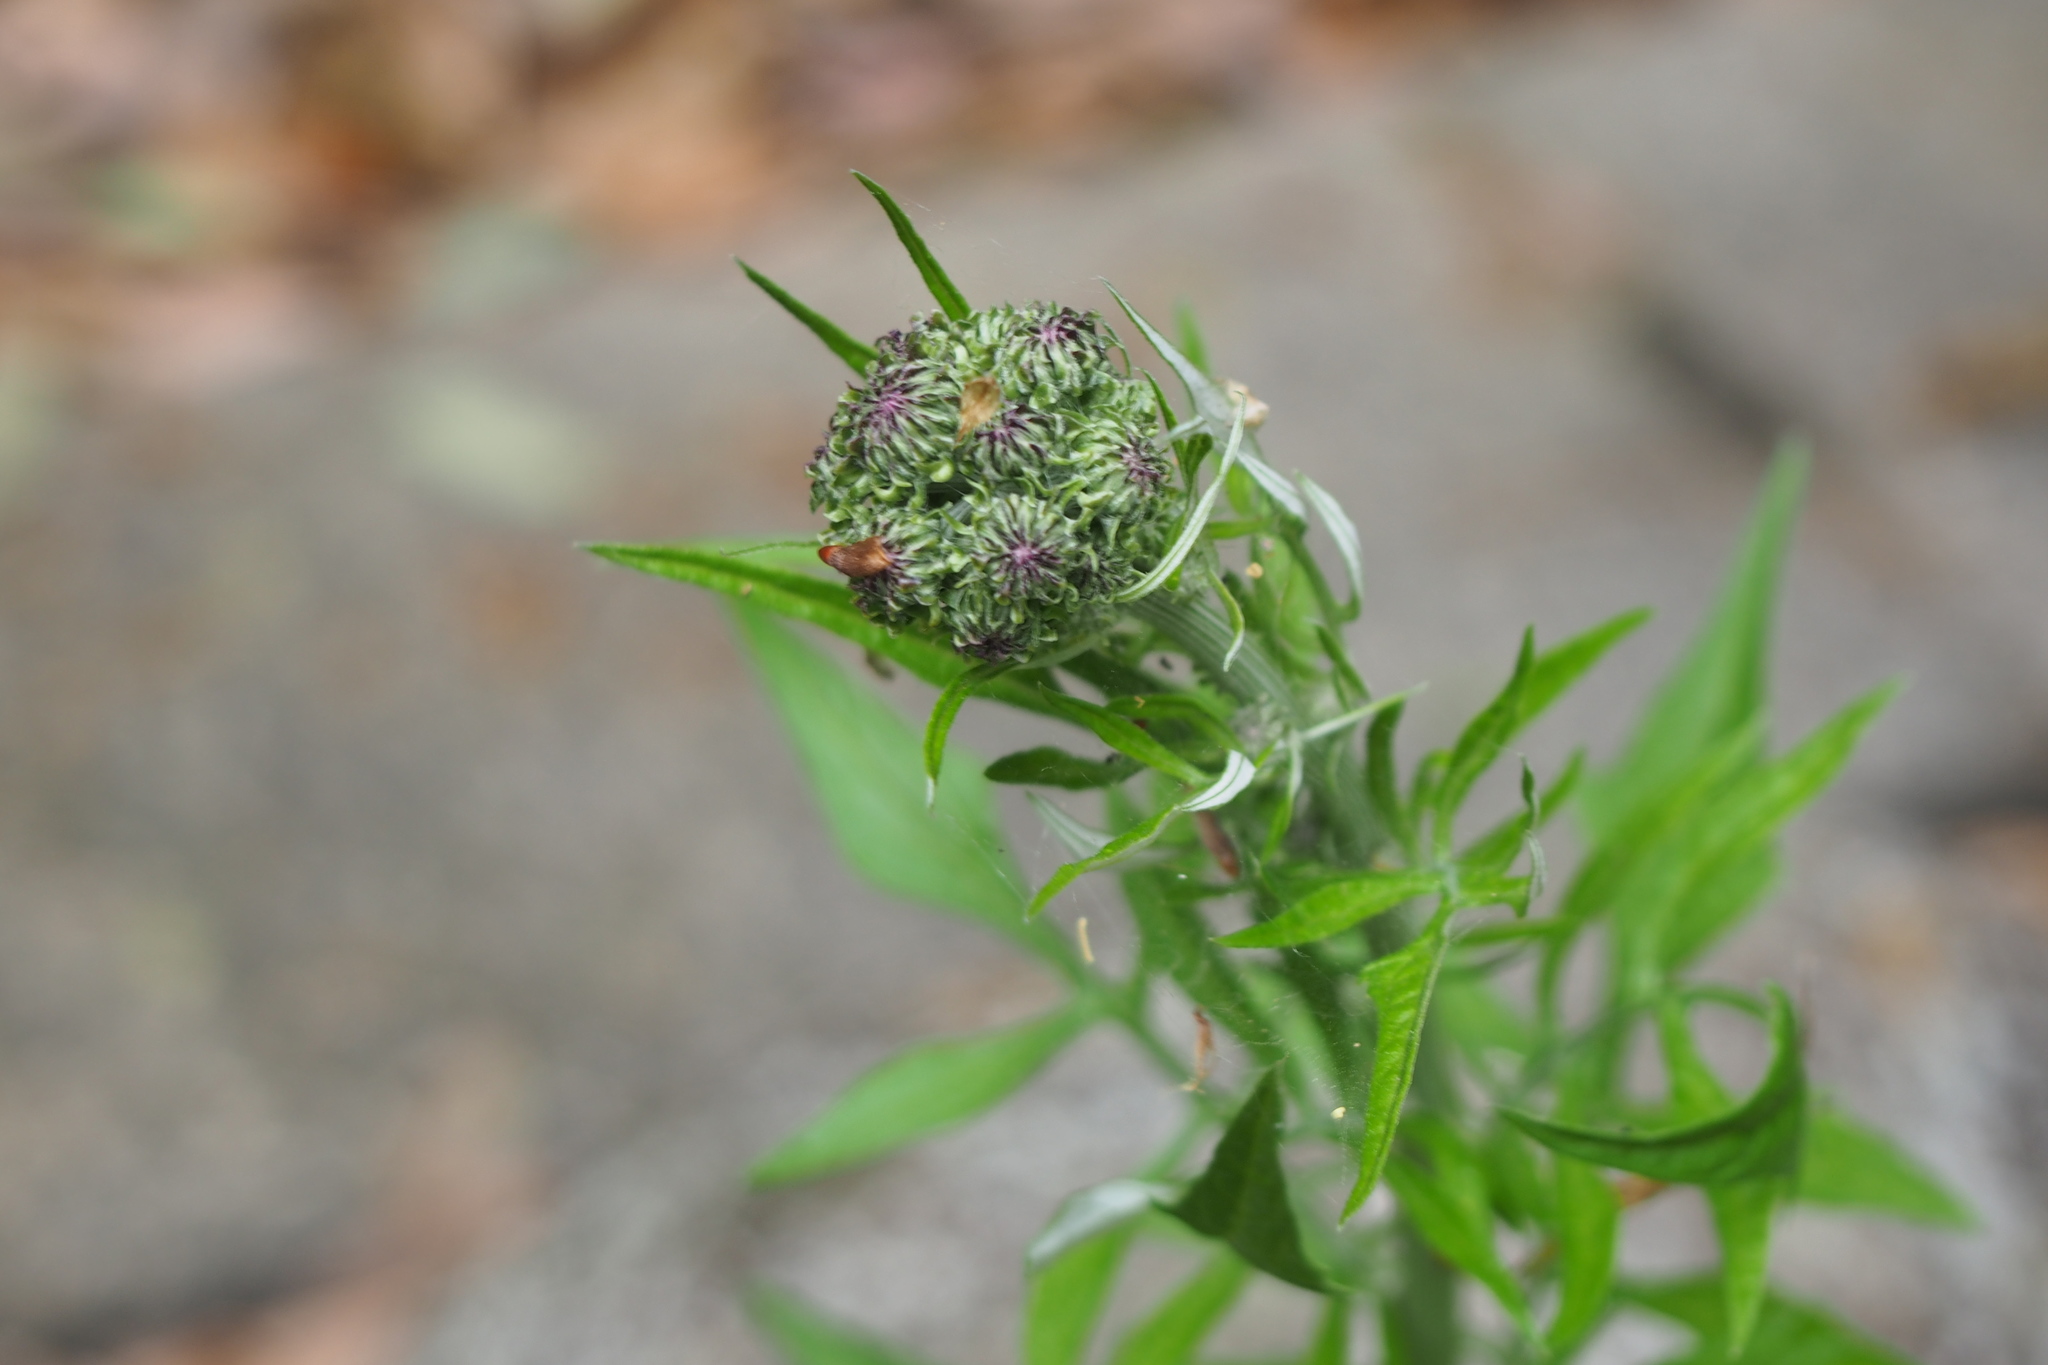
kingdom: Plantae
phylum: Tracheophyta
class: Magnoliopsida
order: Asterales
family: Asteraceae
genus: Saussurea
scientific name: Saussurea lyrata
